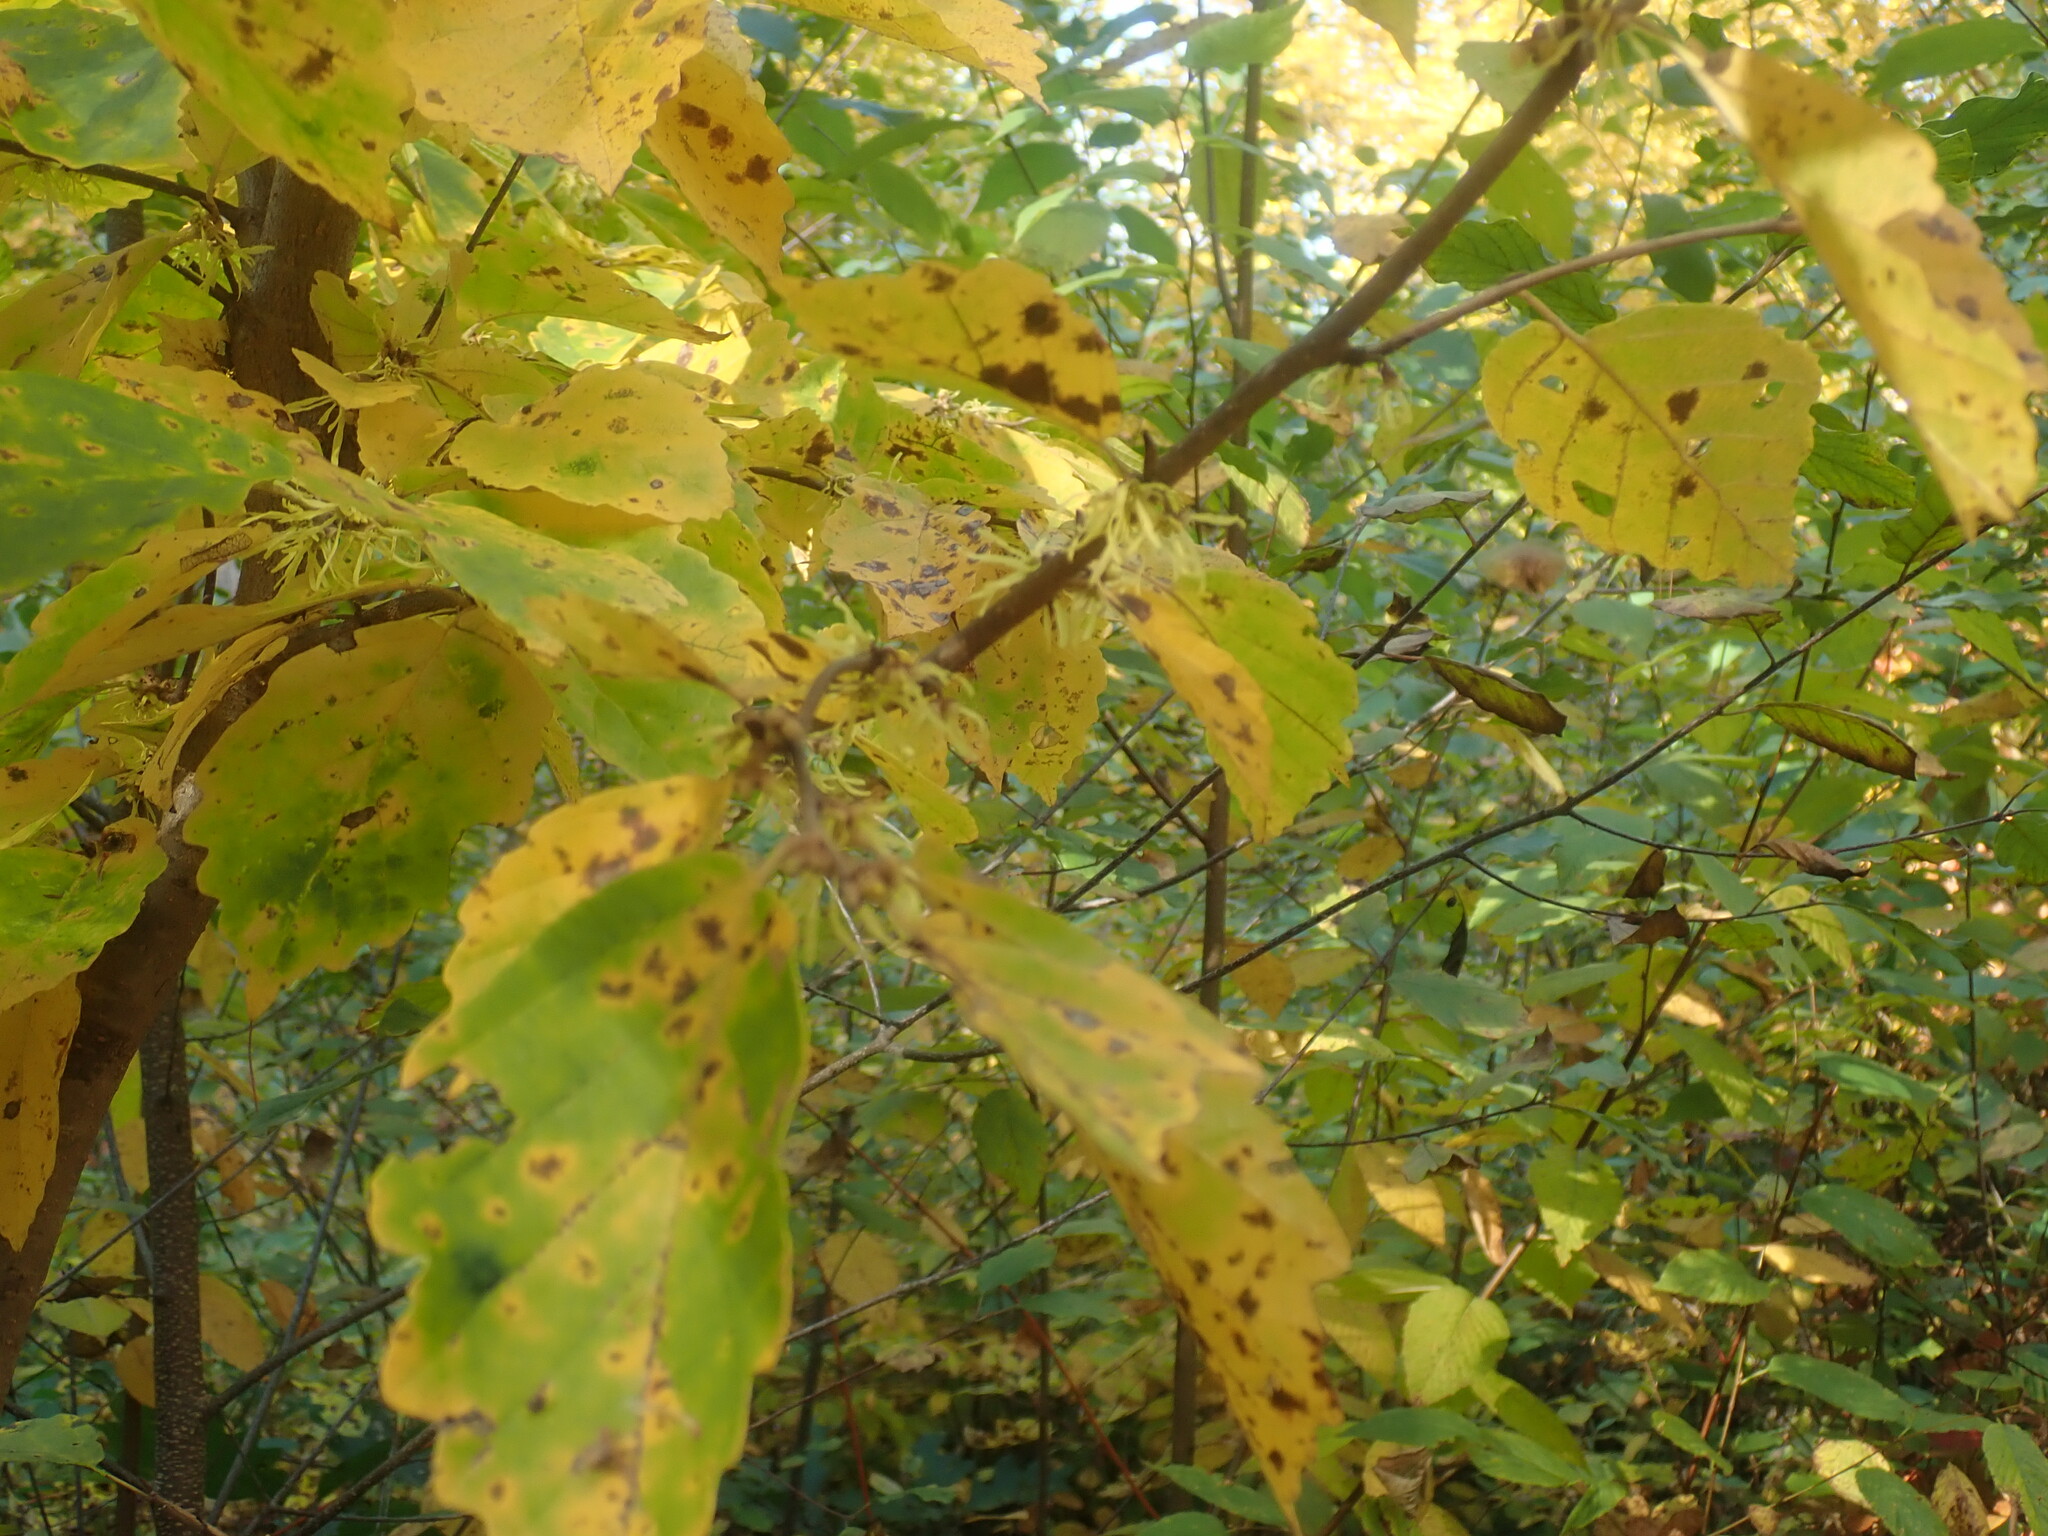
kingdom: Plantae
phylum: Tracheophyta
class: Magnoliopsida
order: Saxifragales
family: Hamamelidaceae
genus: Hamamelis
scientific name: Hamamelis virginiana
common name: Witch-hazel
